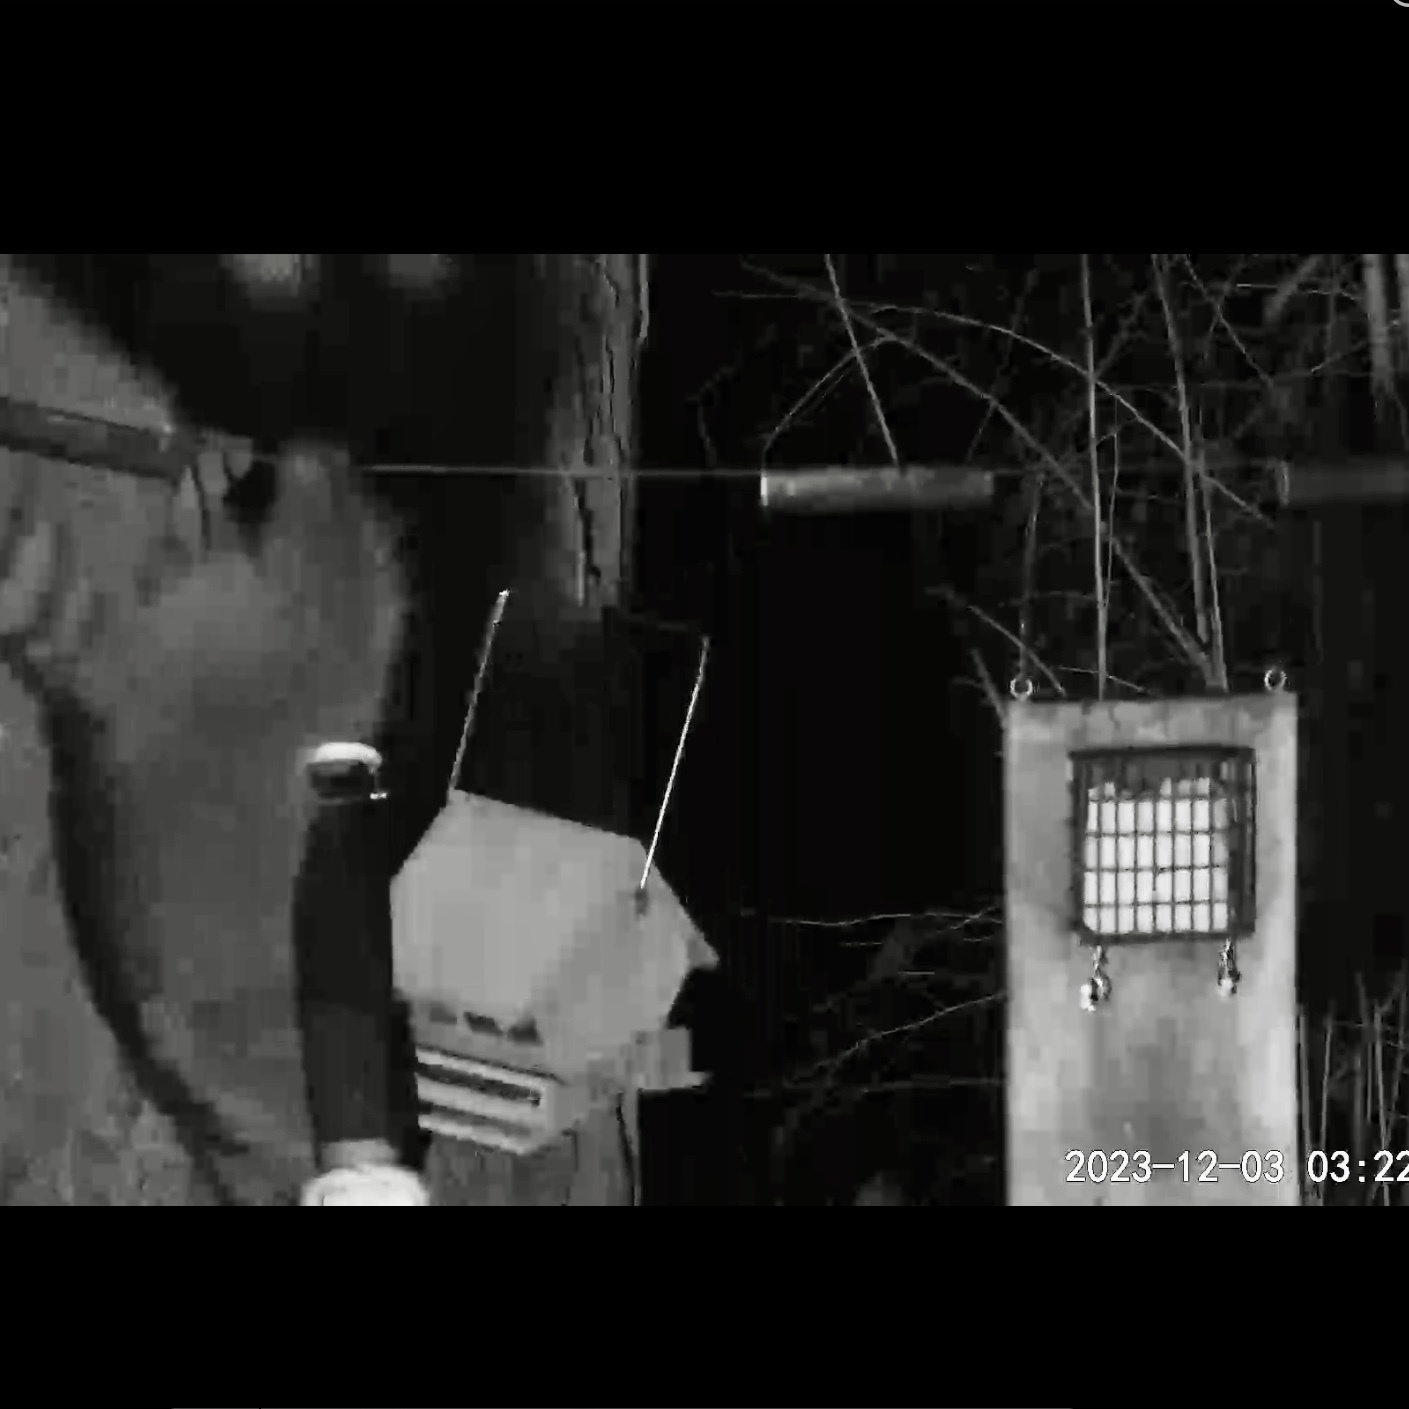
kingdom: Animalia
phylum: Chordata
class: Mammalia
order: Carnivora
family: Procyonidae
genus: Procyon
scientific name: Procyon lotor
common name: Raccoon
